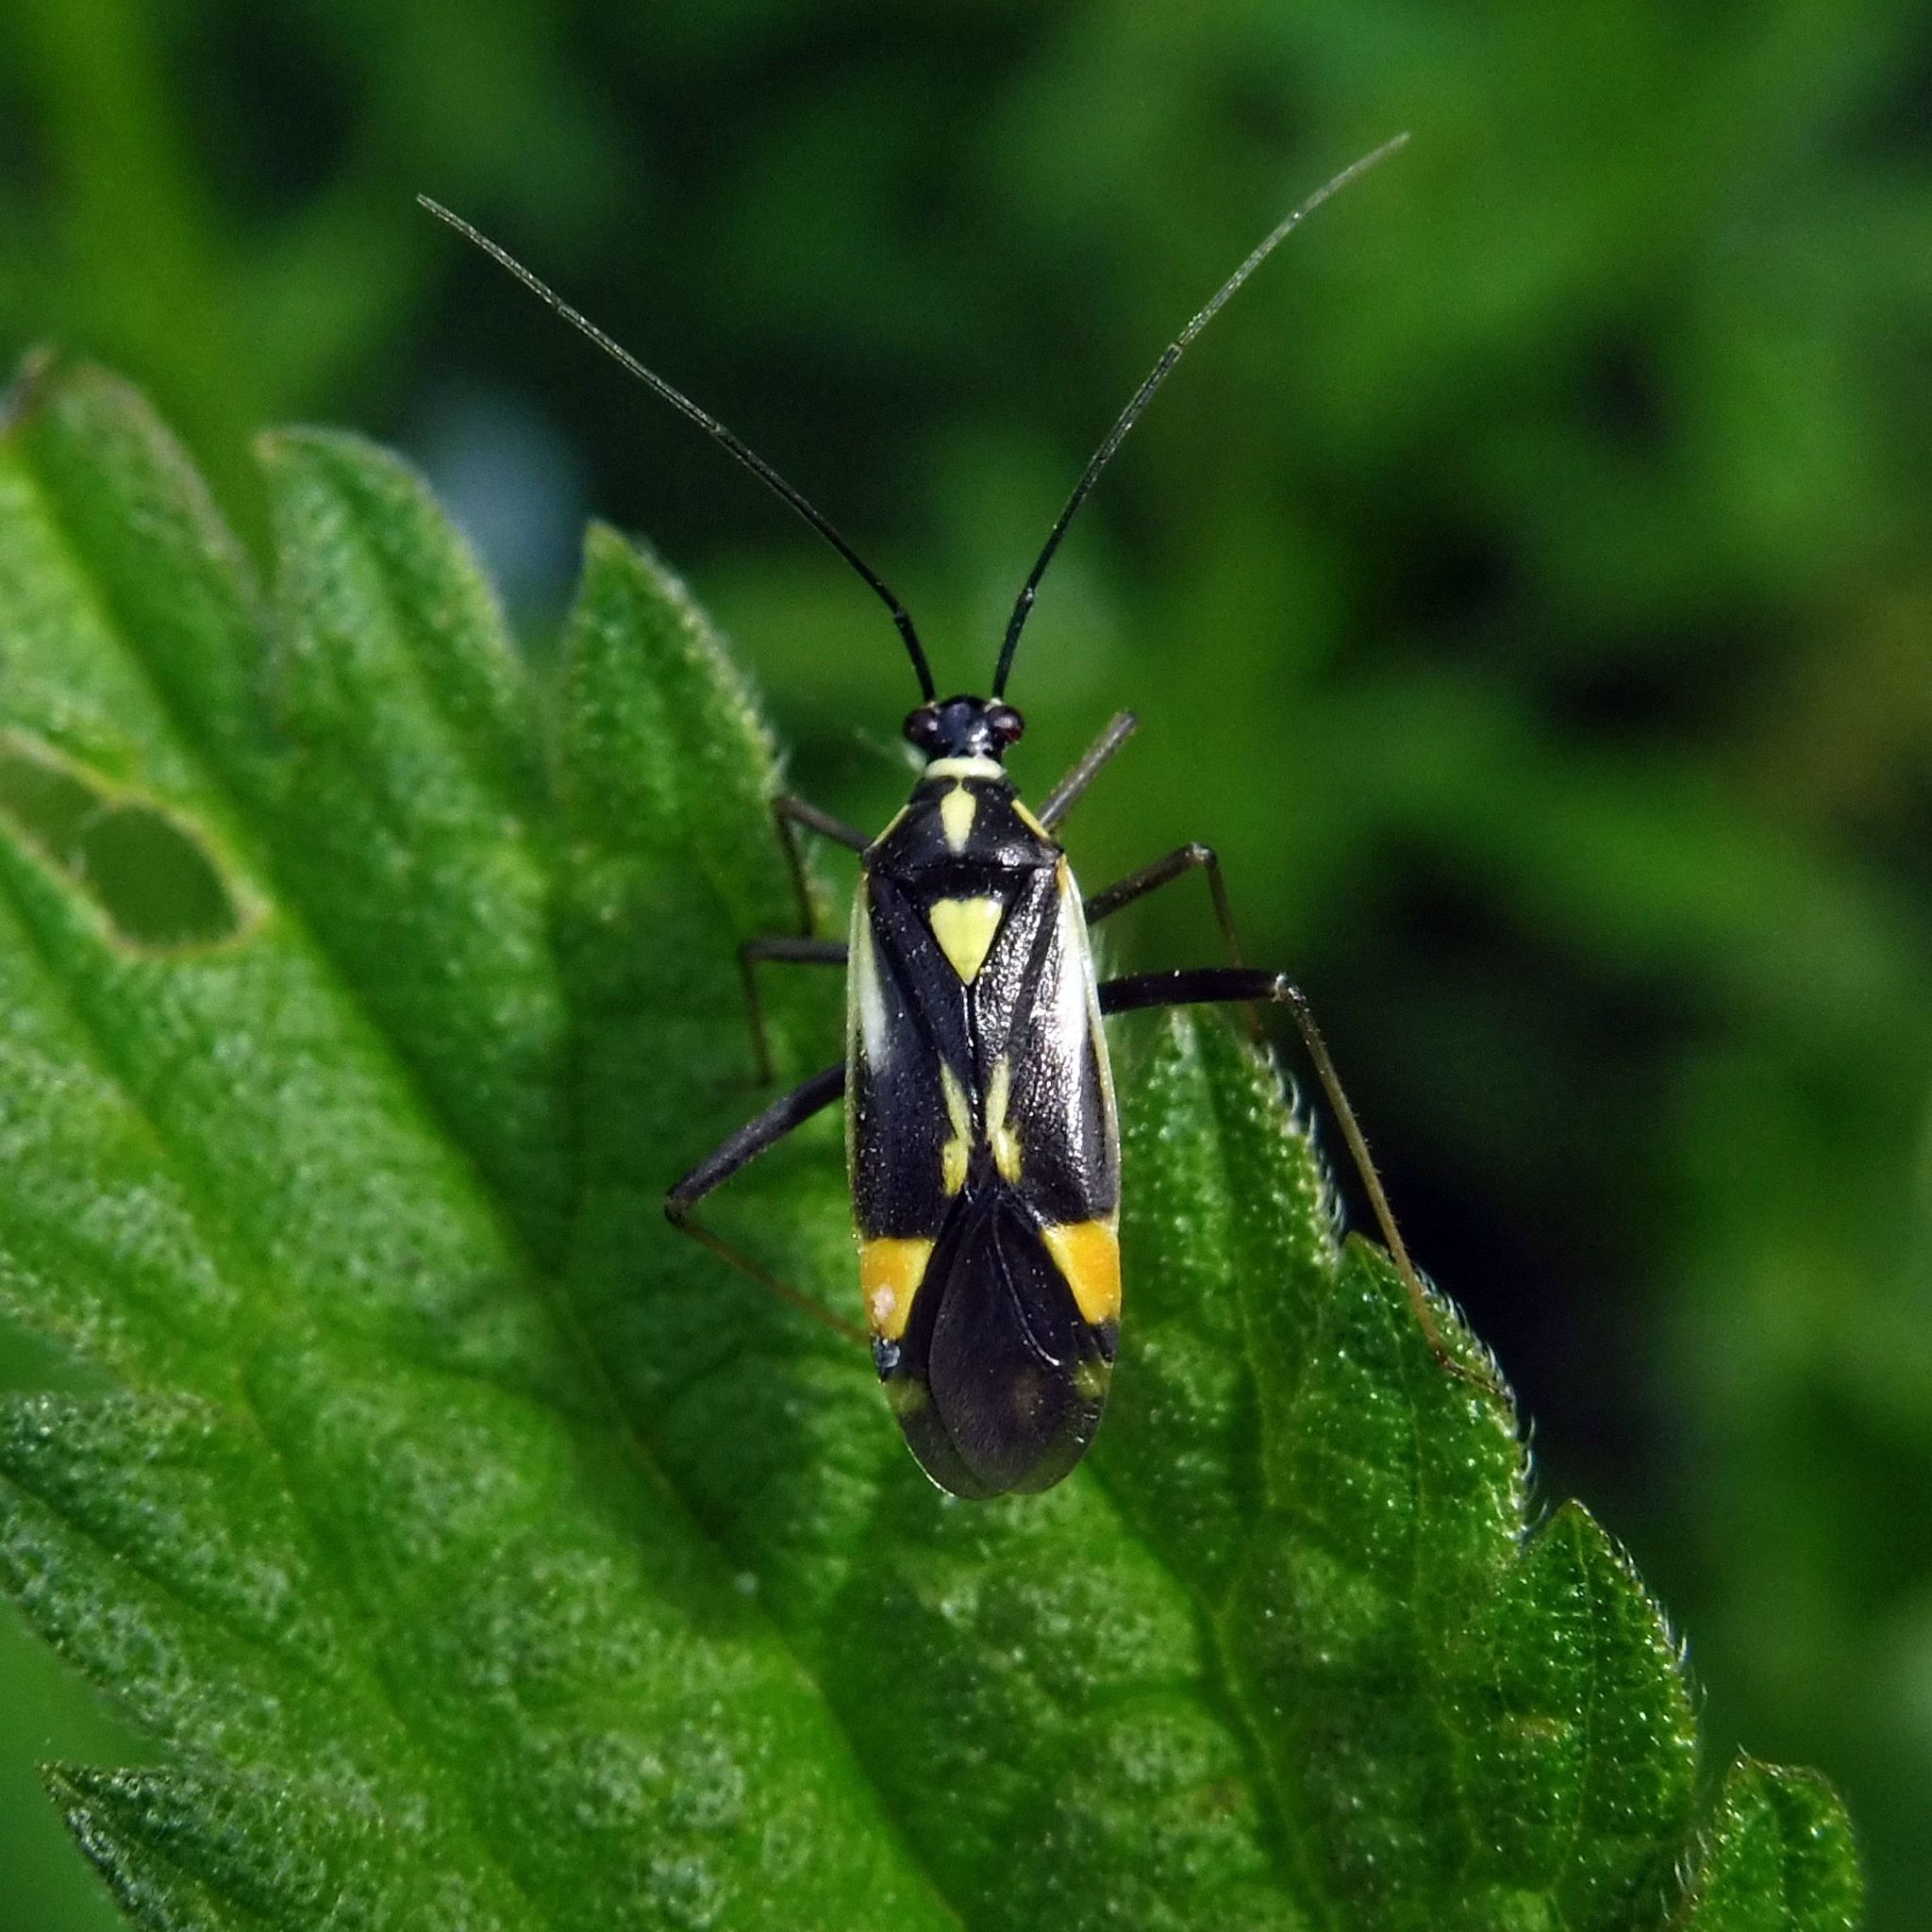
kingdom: Animalia
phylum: Arthropoda
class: Insecta
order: Hemiptera
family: Miridae
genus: Grypocoris
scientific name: Grypocoris stysi
